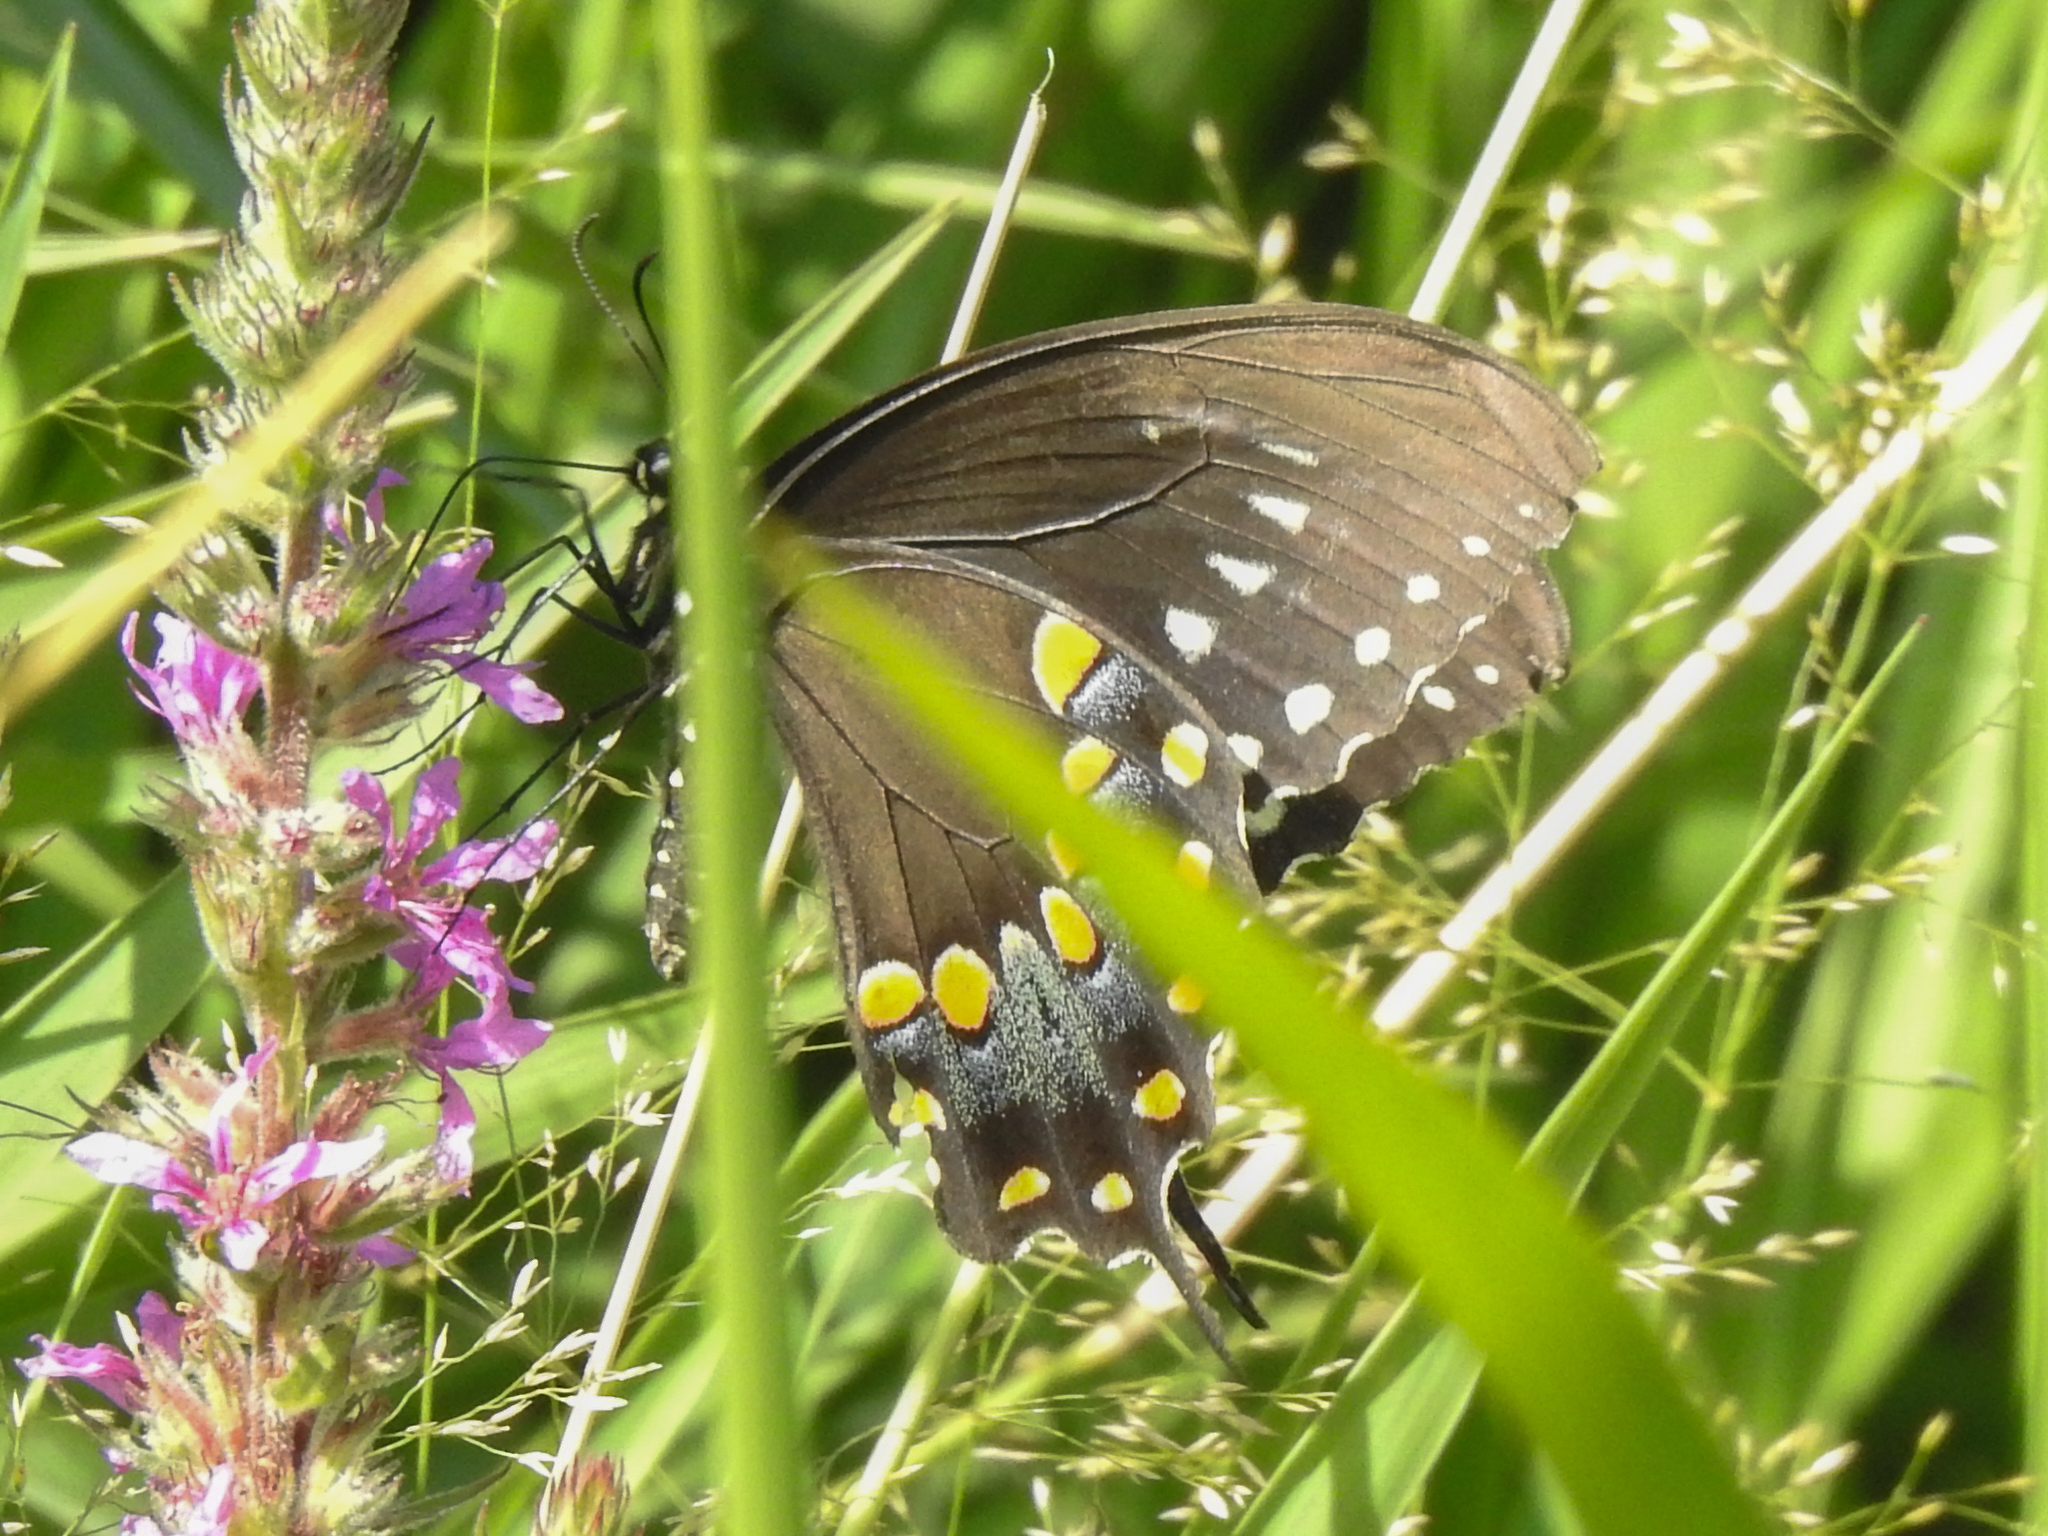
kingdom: Animalia
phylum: Arthropoda
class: Insecta
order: Lepidoptera
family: Papilionidae
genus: Papilio
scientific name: Papilio troilus
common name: Spicebush swallowtail
